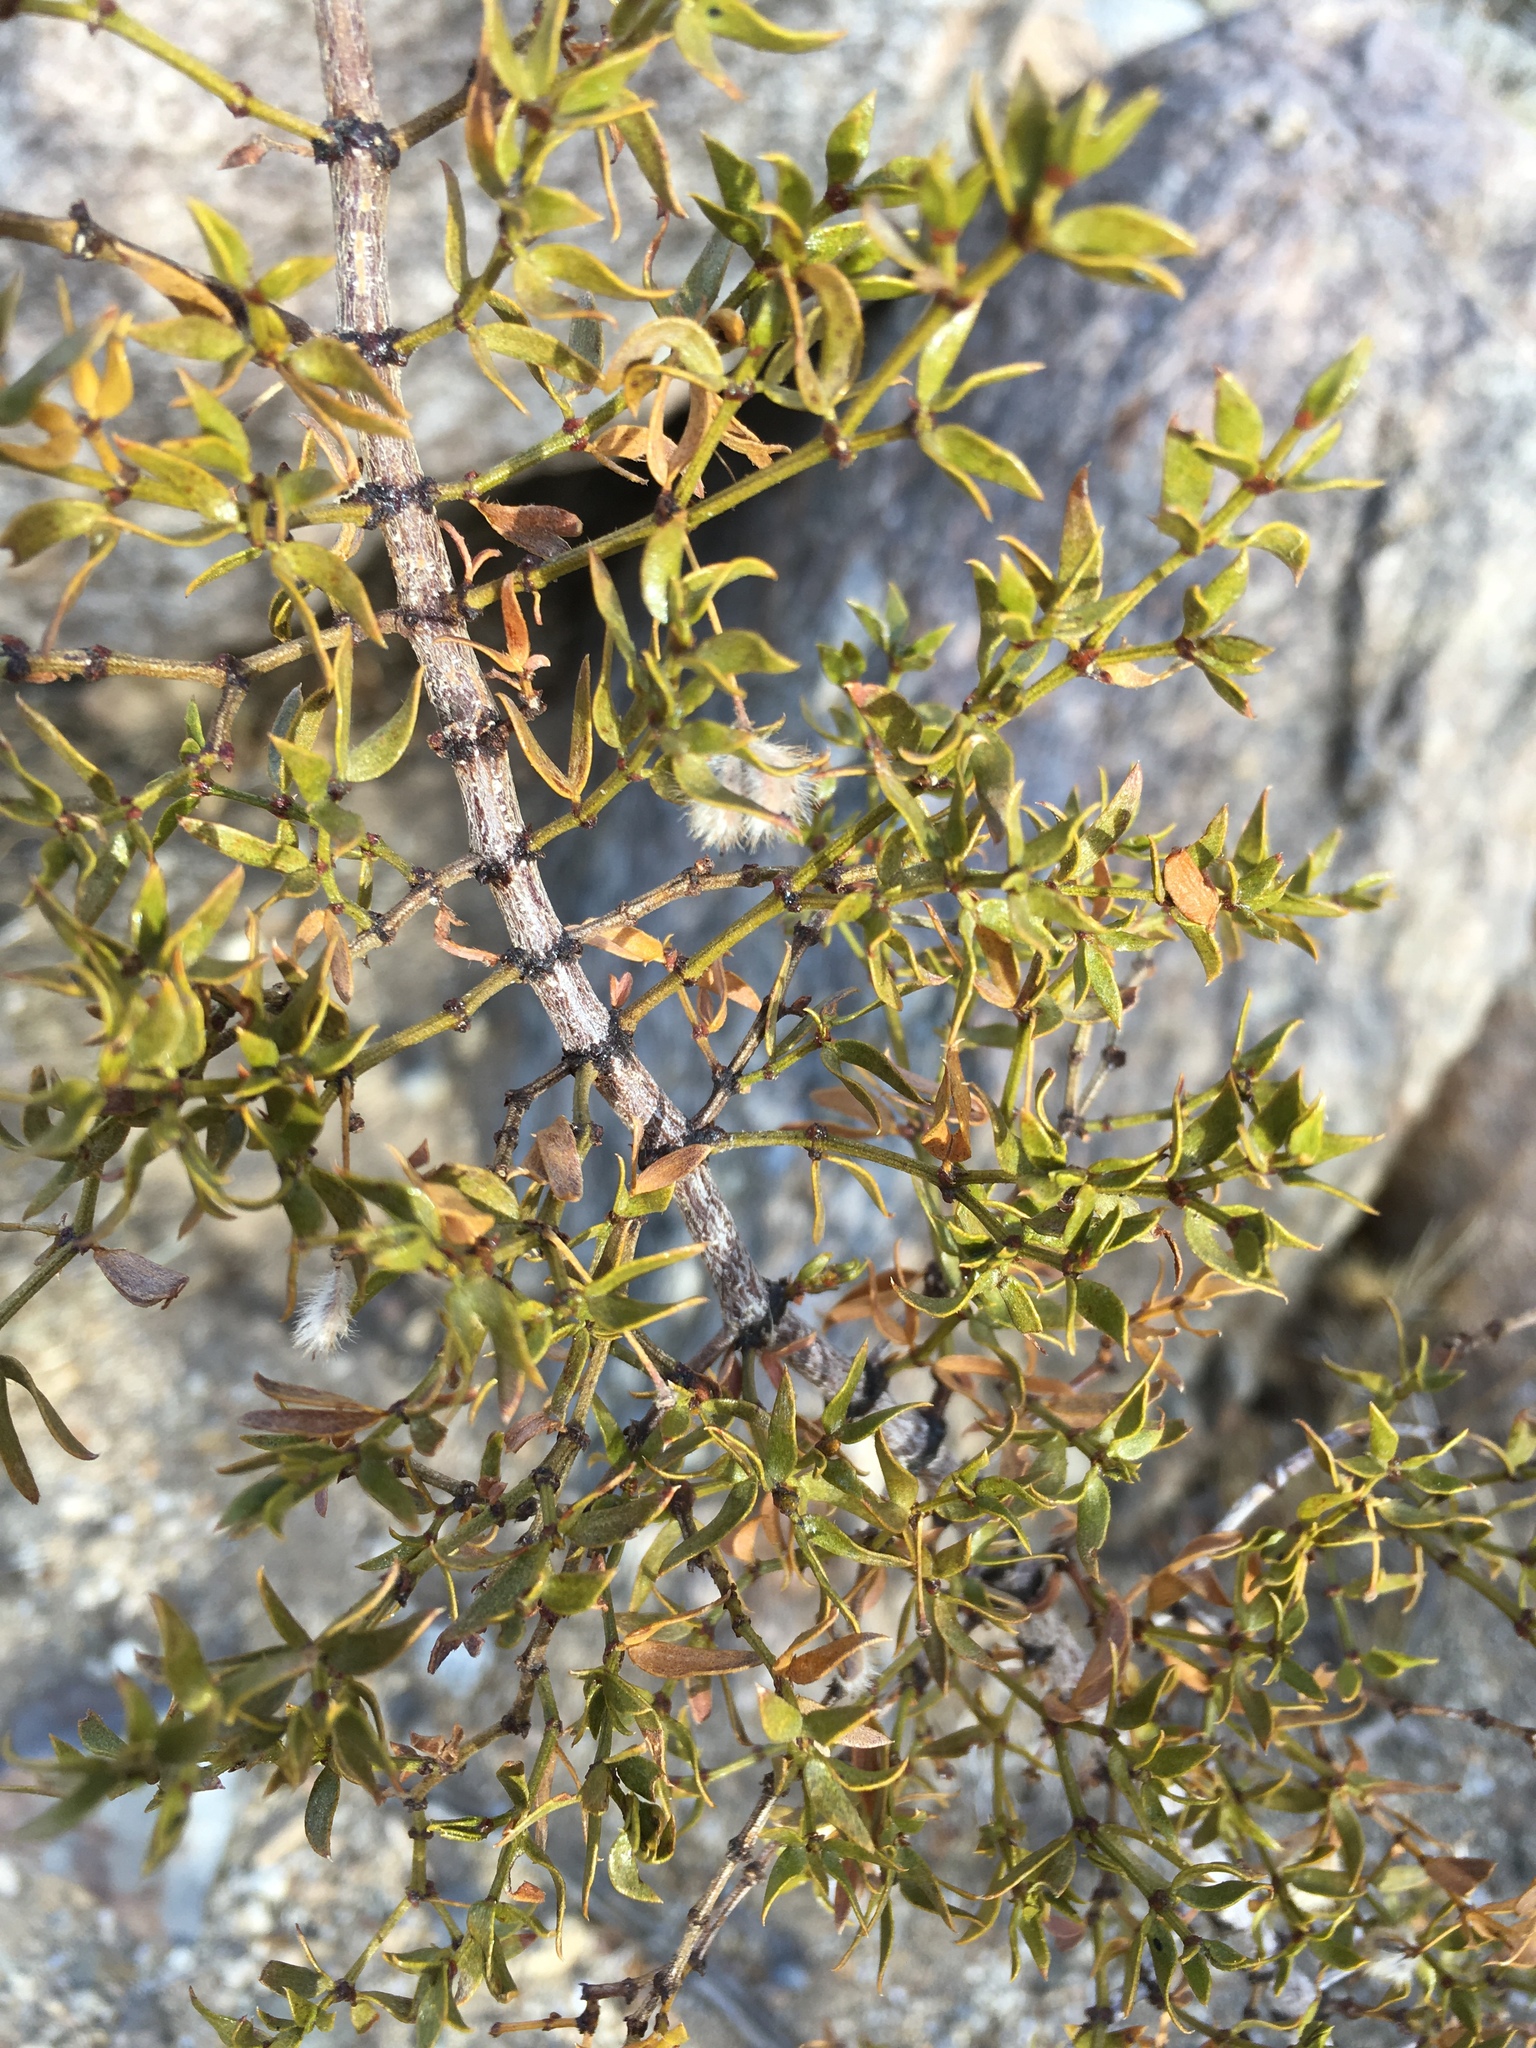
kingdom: Plantae
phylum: Tracheophyta
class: Magnoliopsida
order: Zygophyllales
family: Zygophyllaceae
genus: Larrea
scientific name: Larrea tridentata
